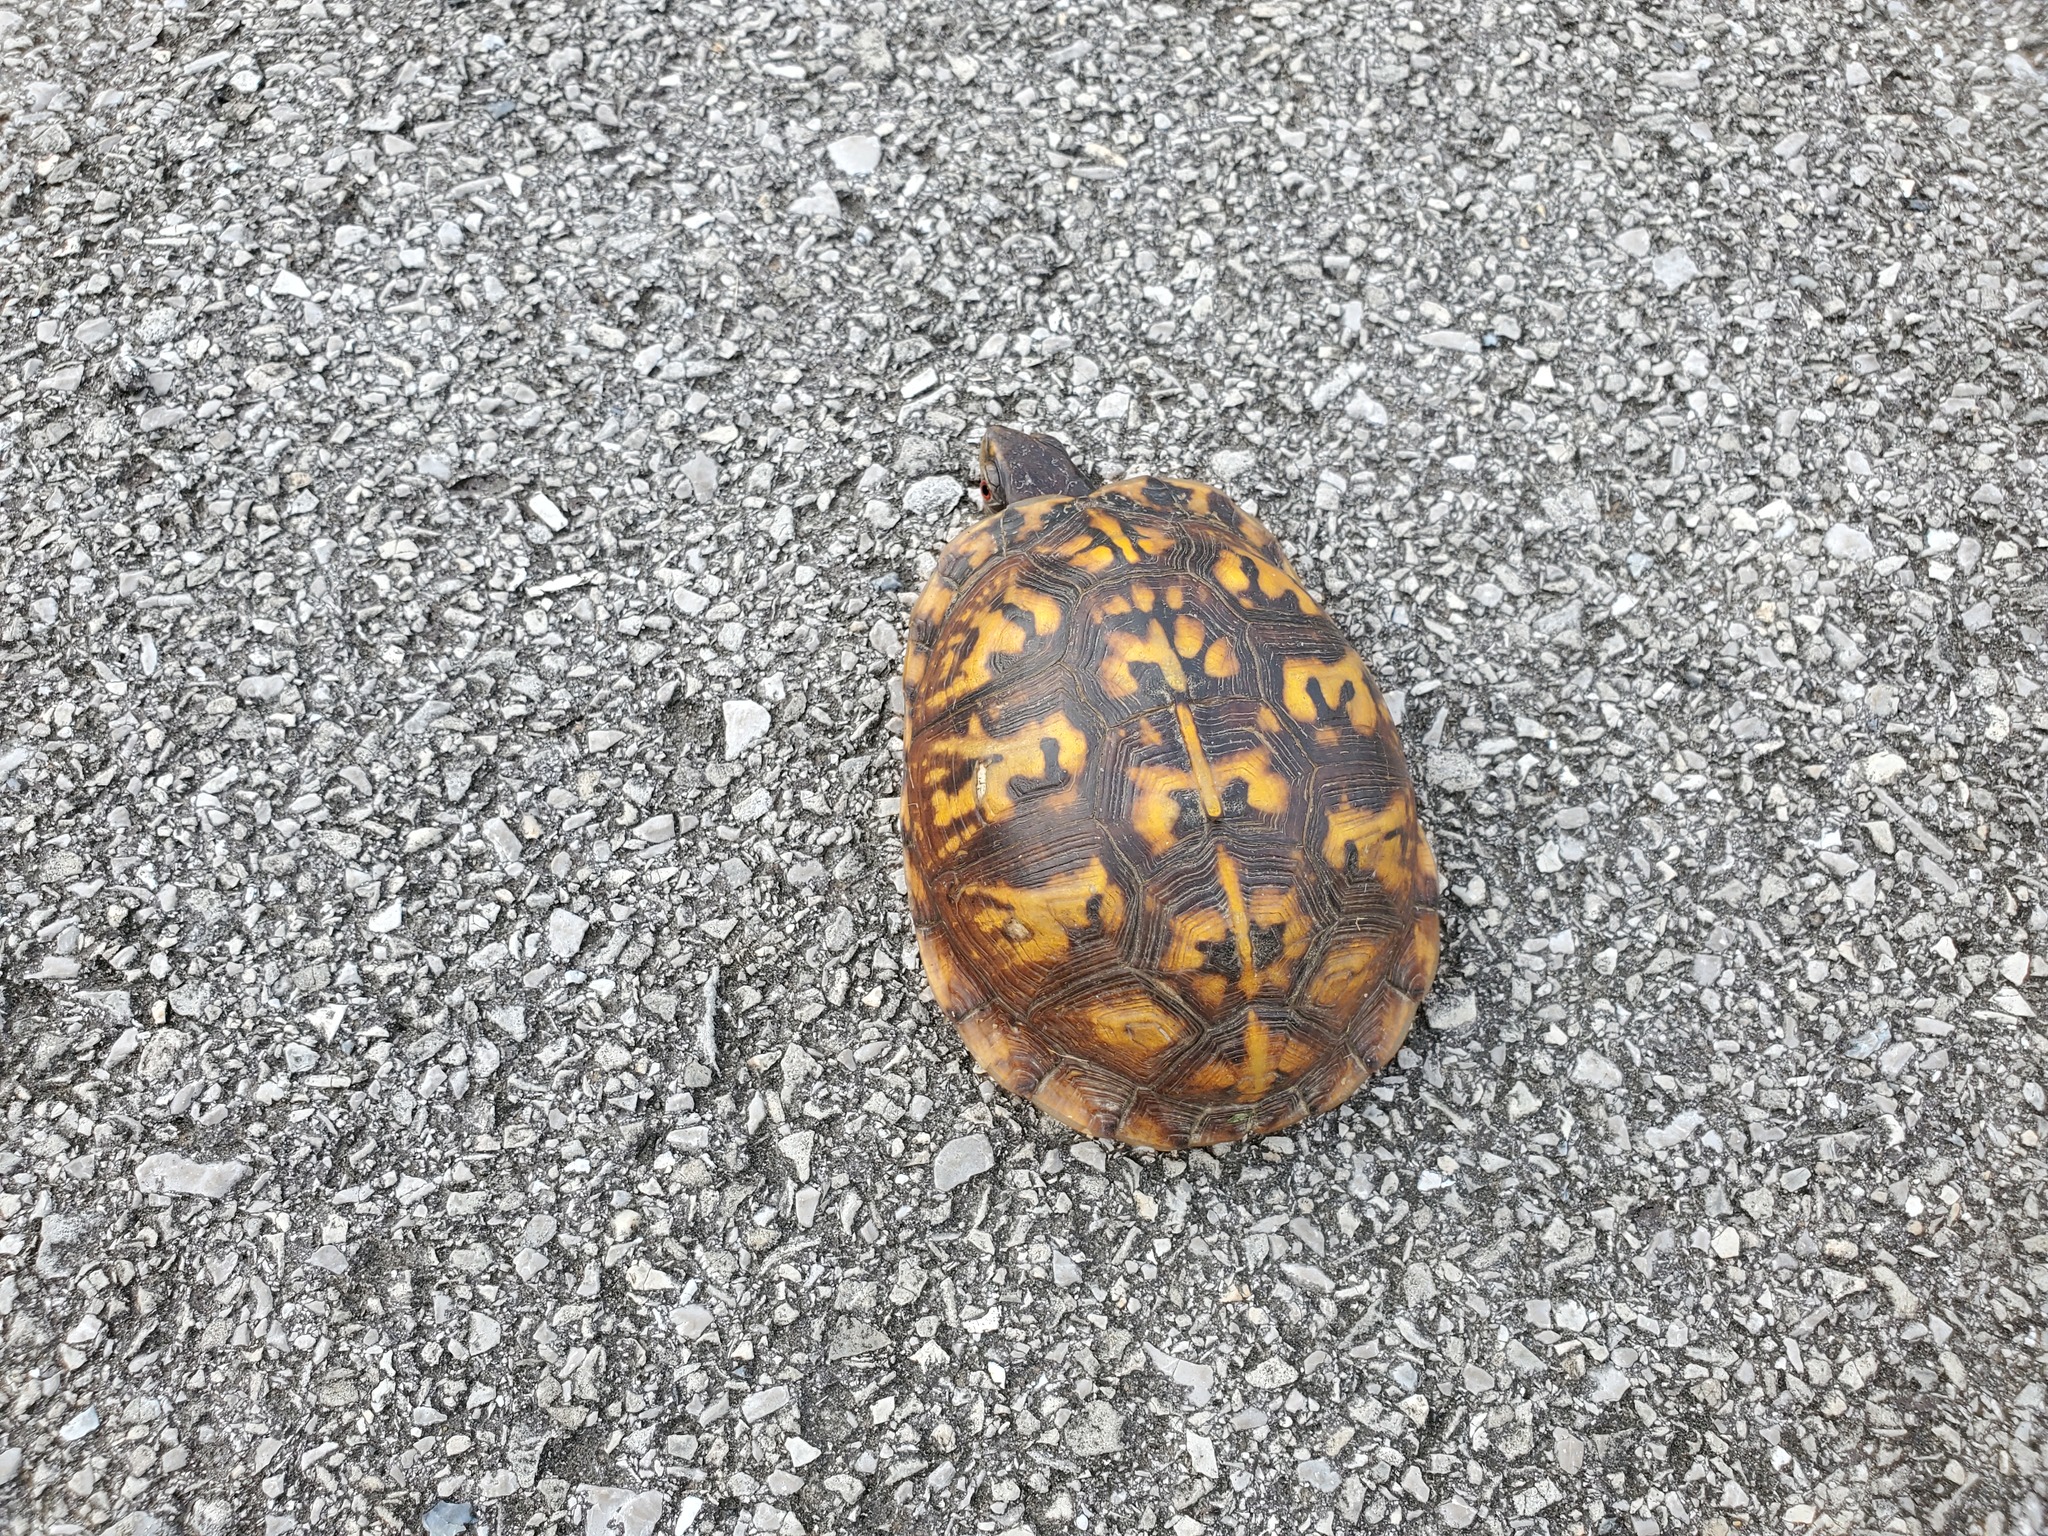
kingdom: Animalia
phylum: Chordata
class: Testudines
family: Emydidae
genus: Terrapene
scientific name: Terrapene carolina
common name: Common box turtle
